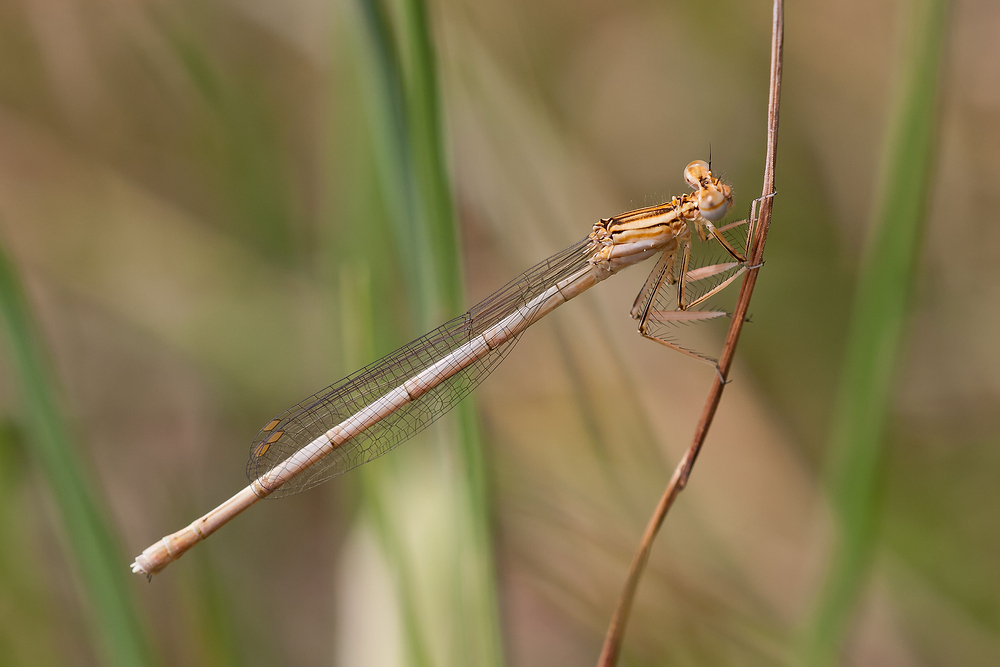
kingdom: Animalia
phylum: Arthropoda
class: Insecta
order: Odonata
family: Platycnemididae
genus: Platycnemis
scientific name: Platycnemis pennipes
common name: White-legged damselfly
